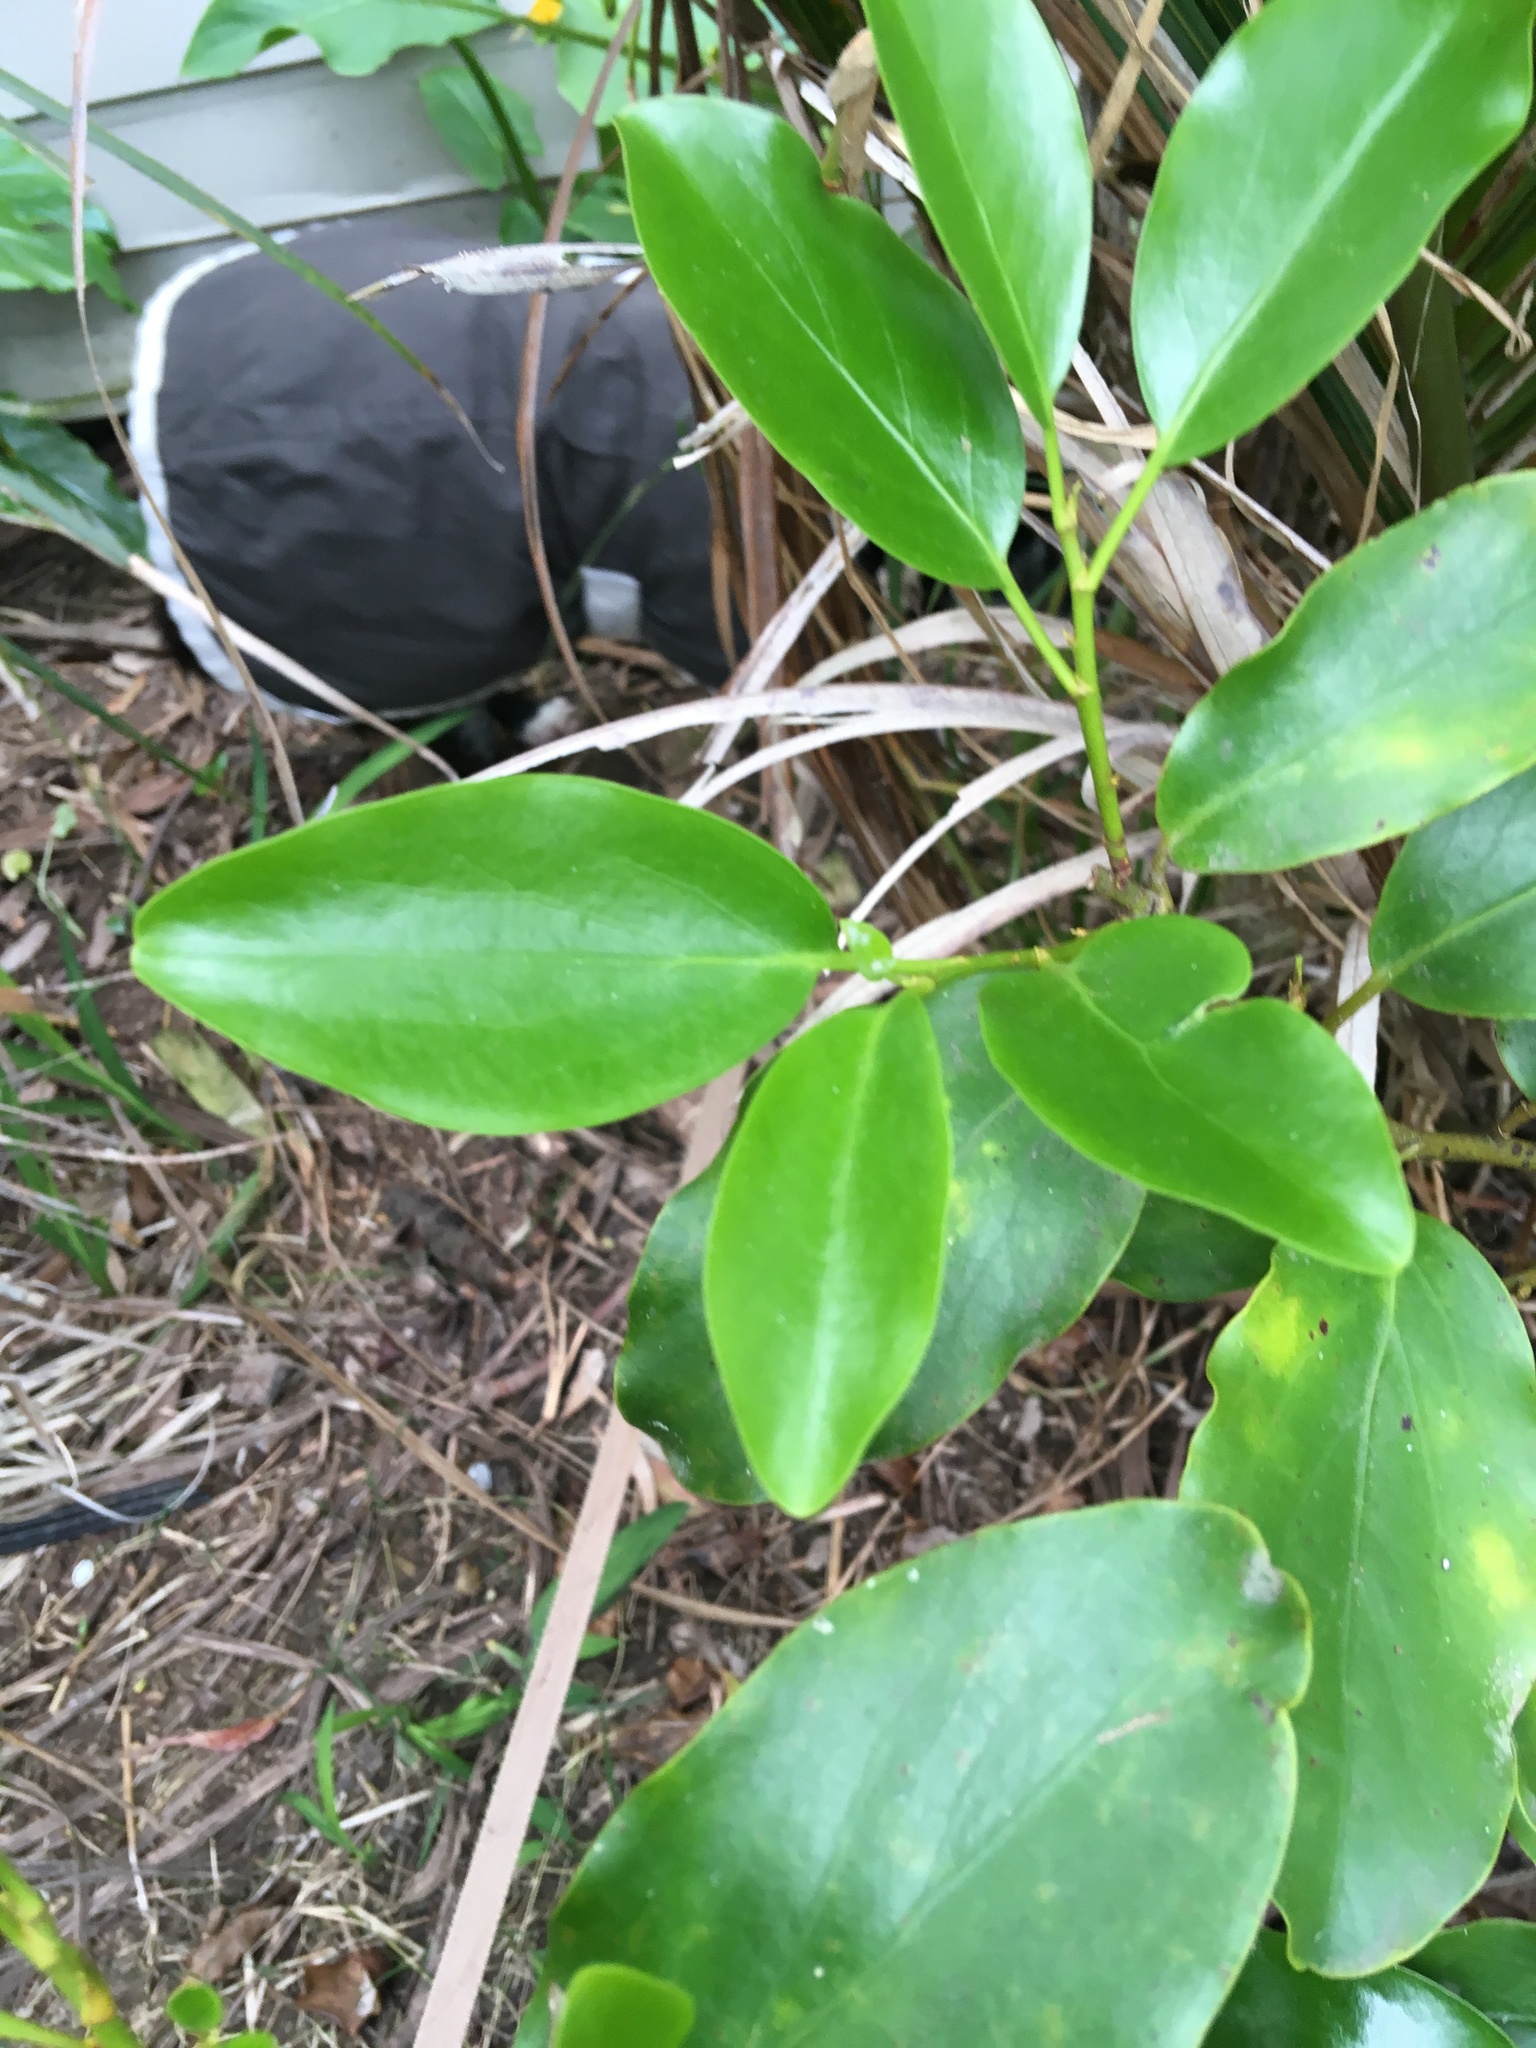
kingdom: Plantae
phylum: Tracheophyta
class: Magnoliopsida
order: Apiales
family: Griseliniaceae
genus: Griselinia
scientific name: Griselinia littoralis
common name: New zealand broadleaf
